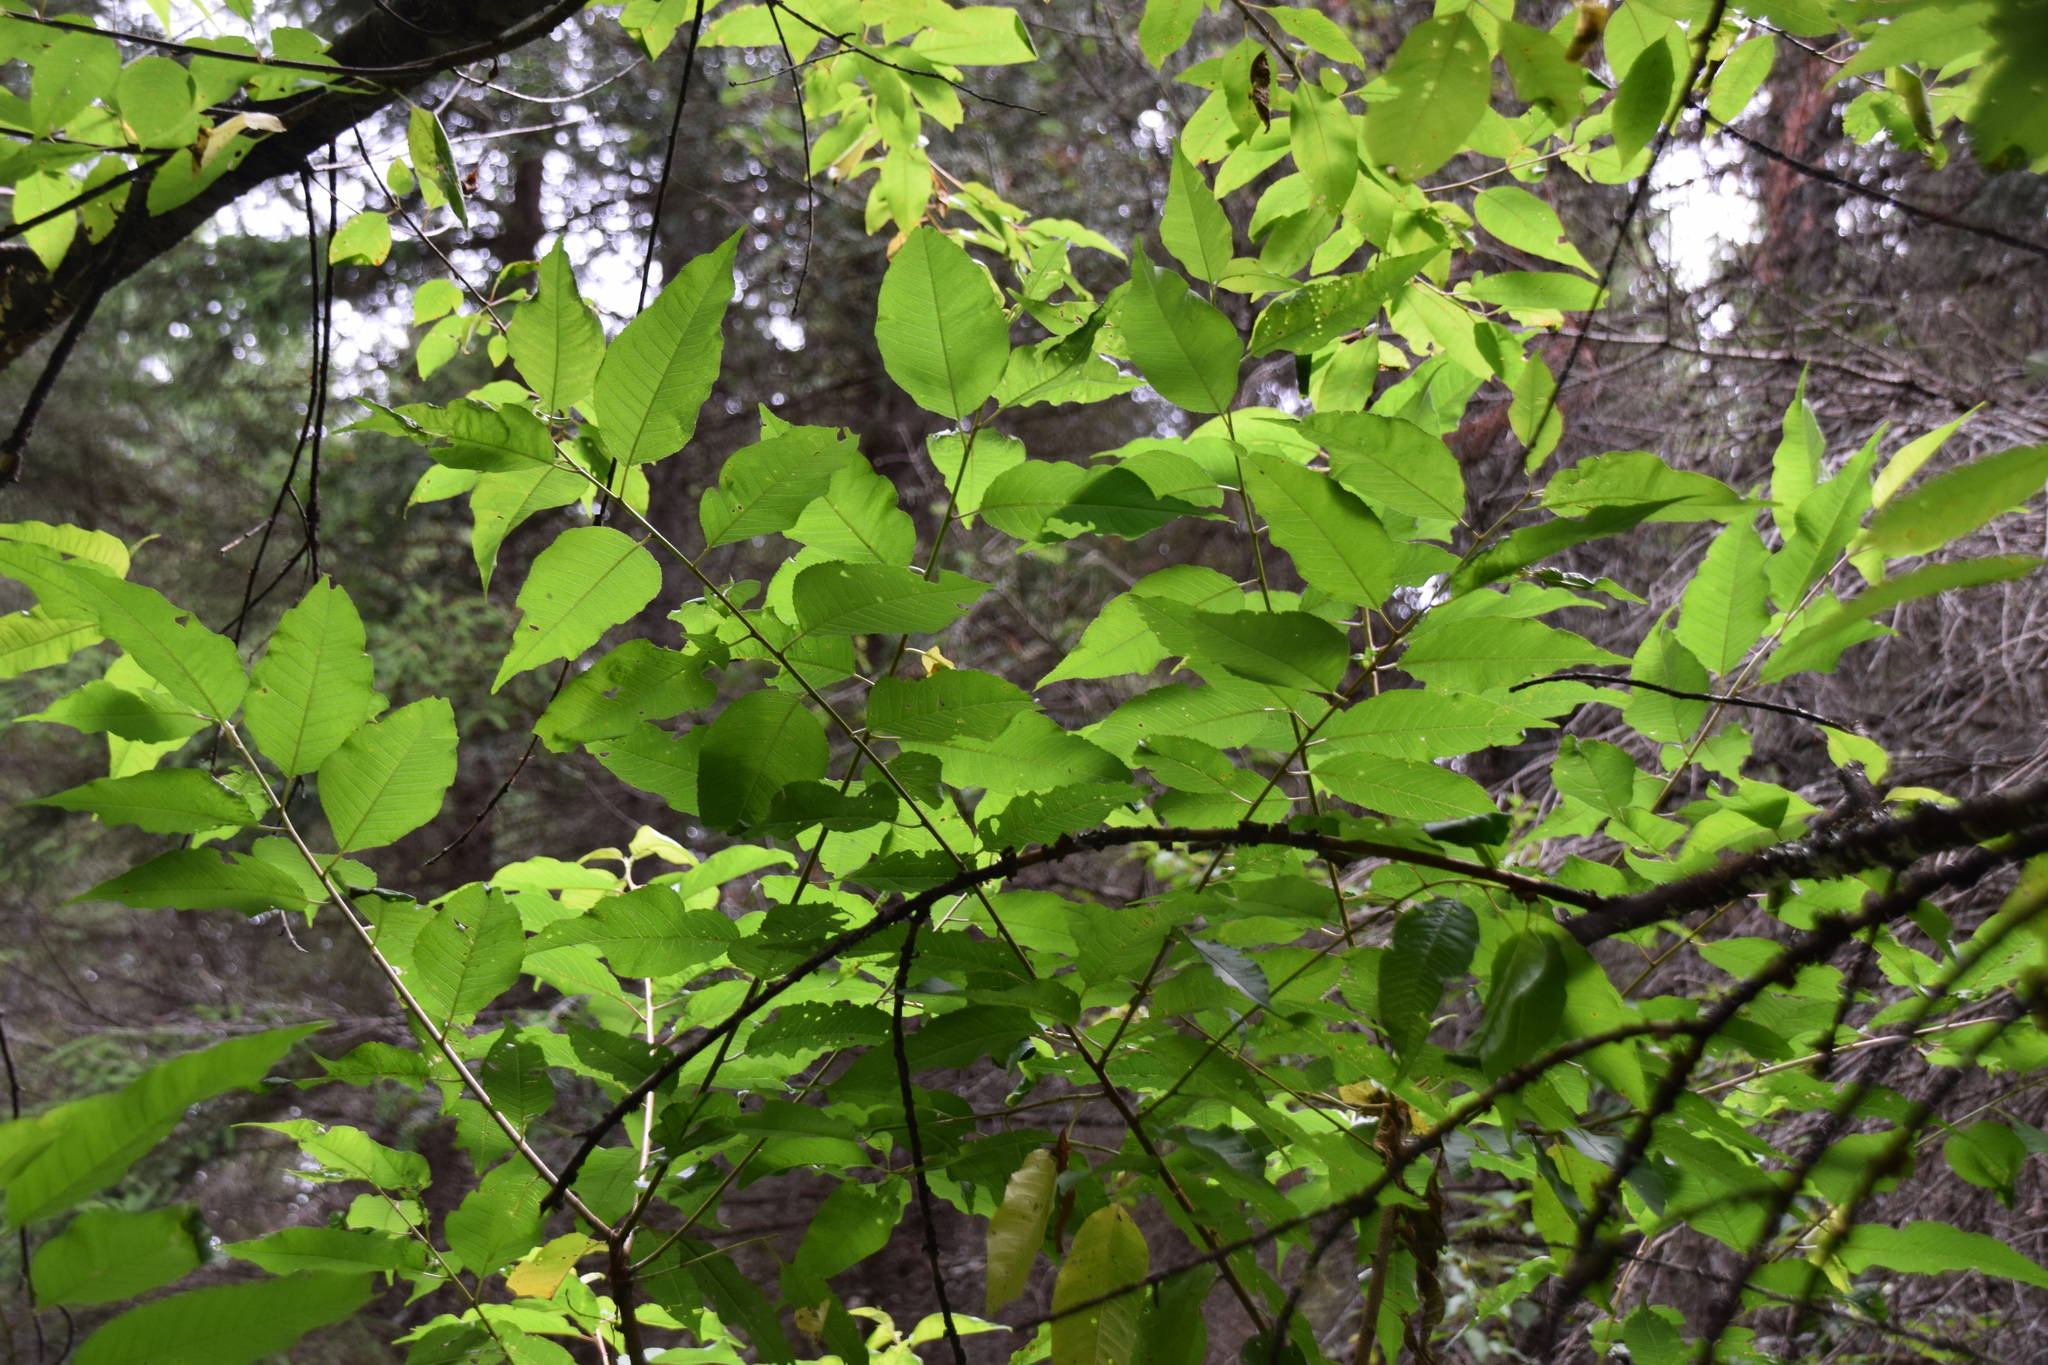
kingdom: Plantae
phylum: Tracheophyta
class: Magnoliopsida
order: Rosales
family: Rosaceae
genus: Prunus
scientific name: Prunus pensylvanica
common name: Pin cherry
